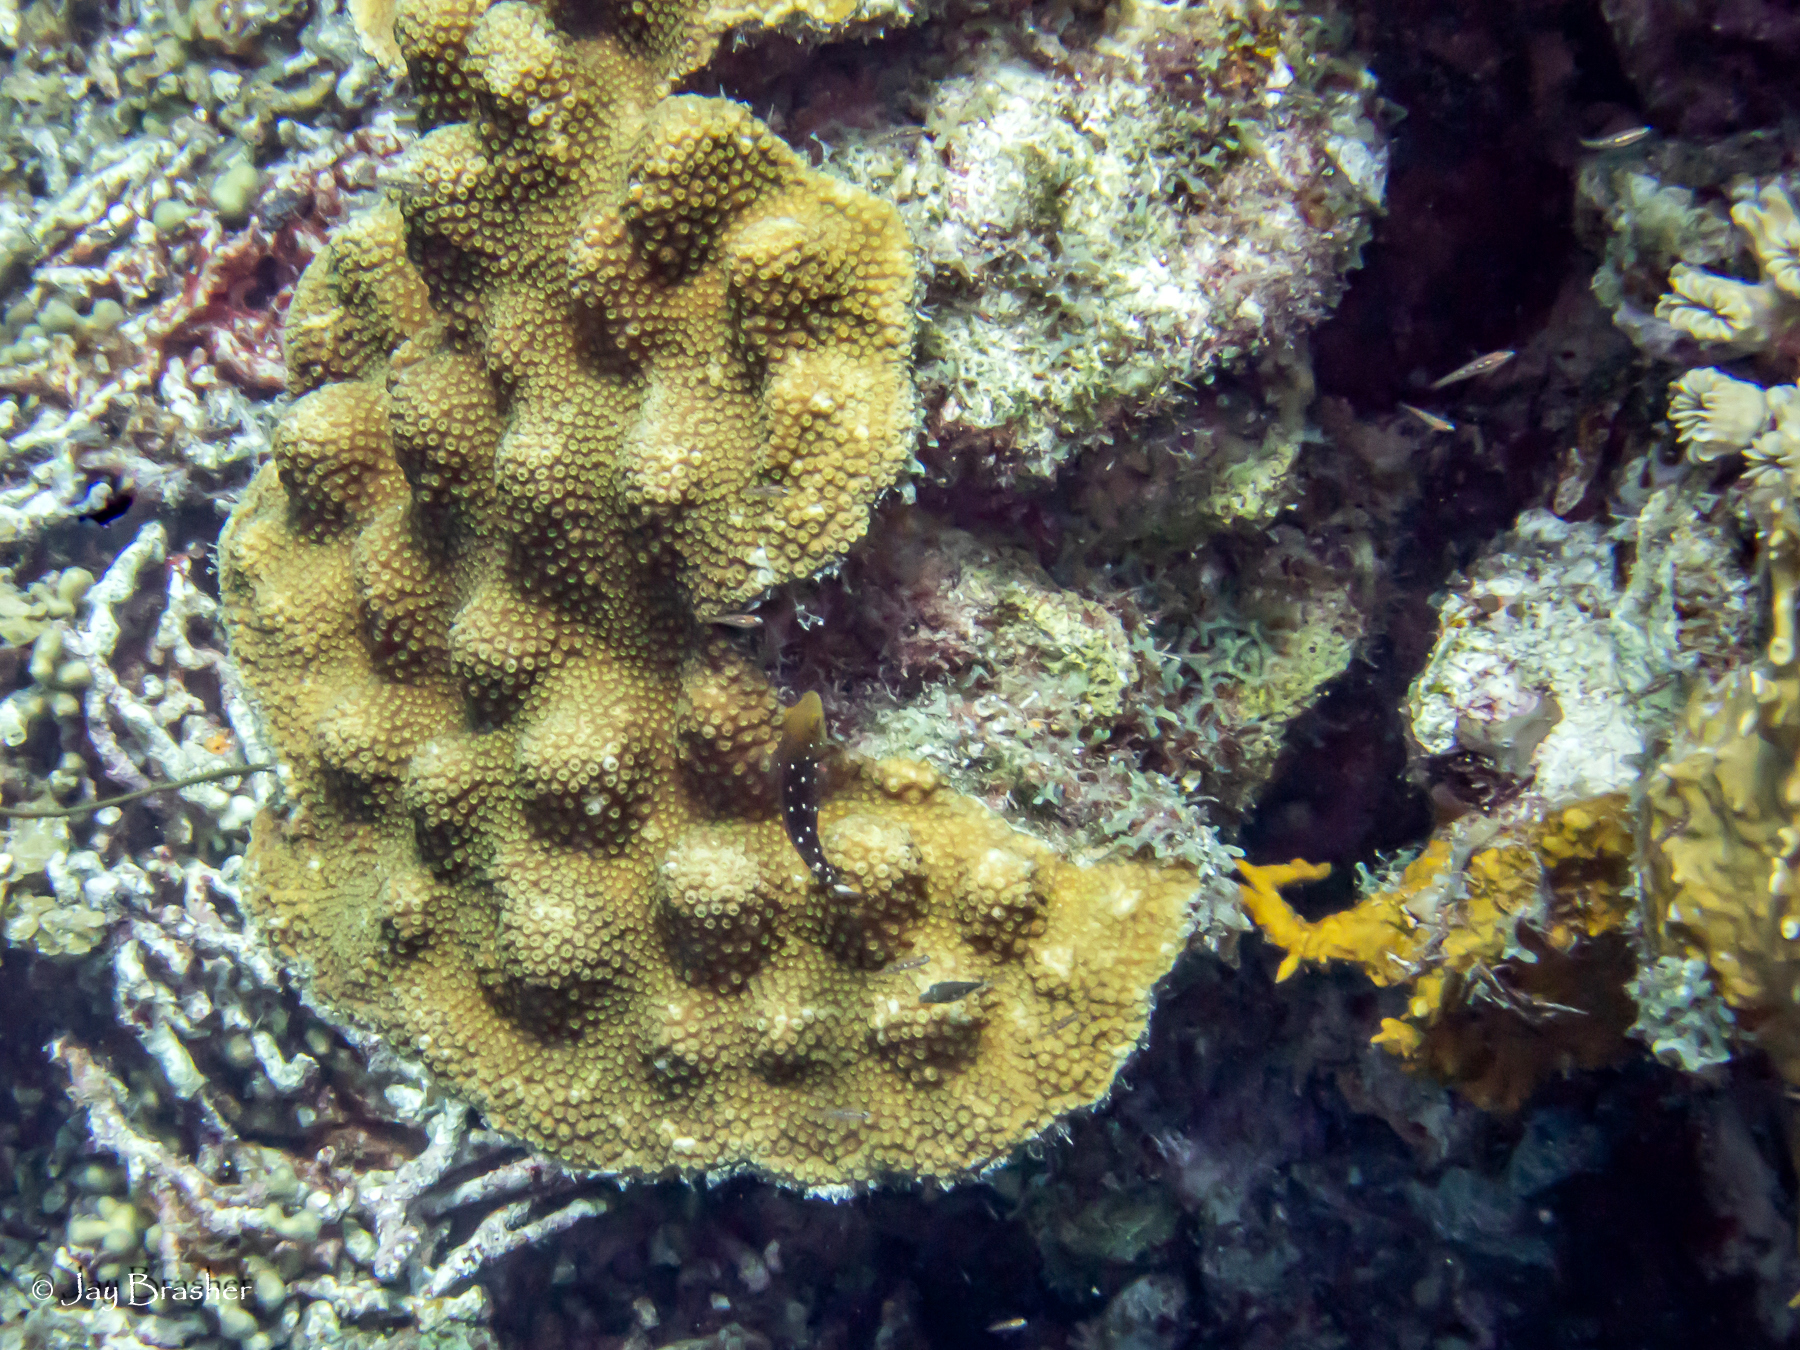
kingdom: Animalia
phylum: Chordata
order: Perciformes
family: Scaridae
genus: Sparisoma
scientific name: Sparisoma viride
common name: Stoplight parrotfish
